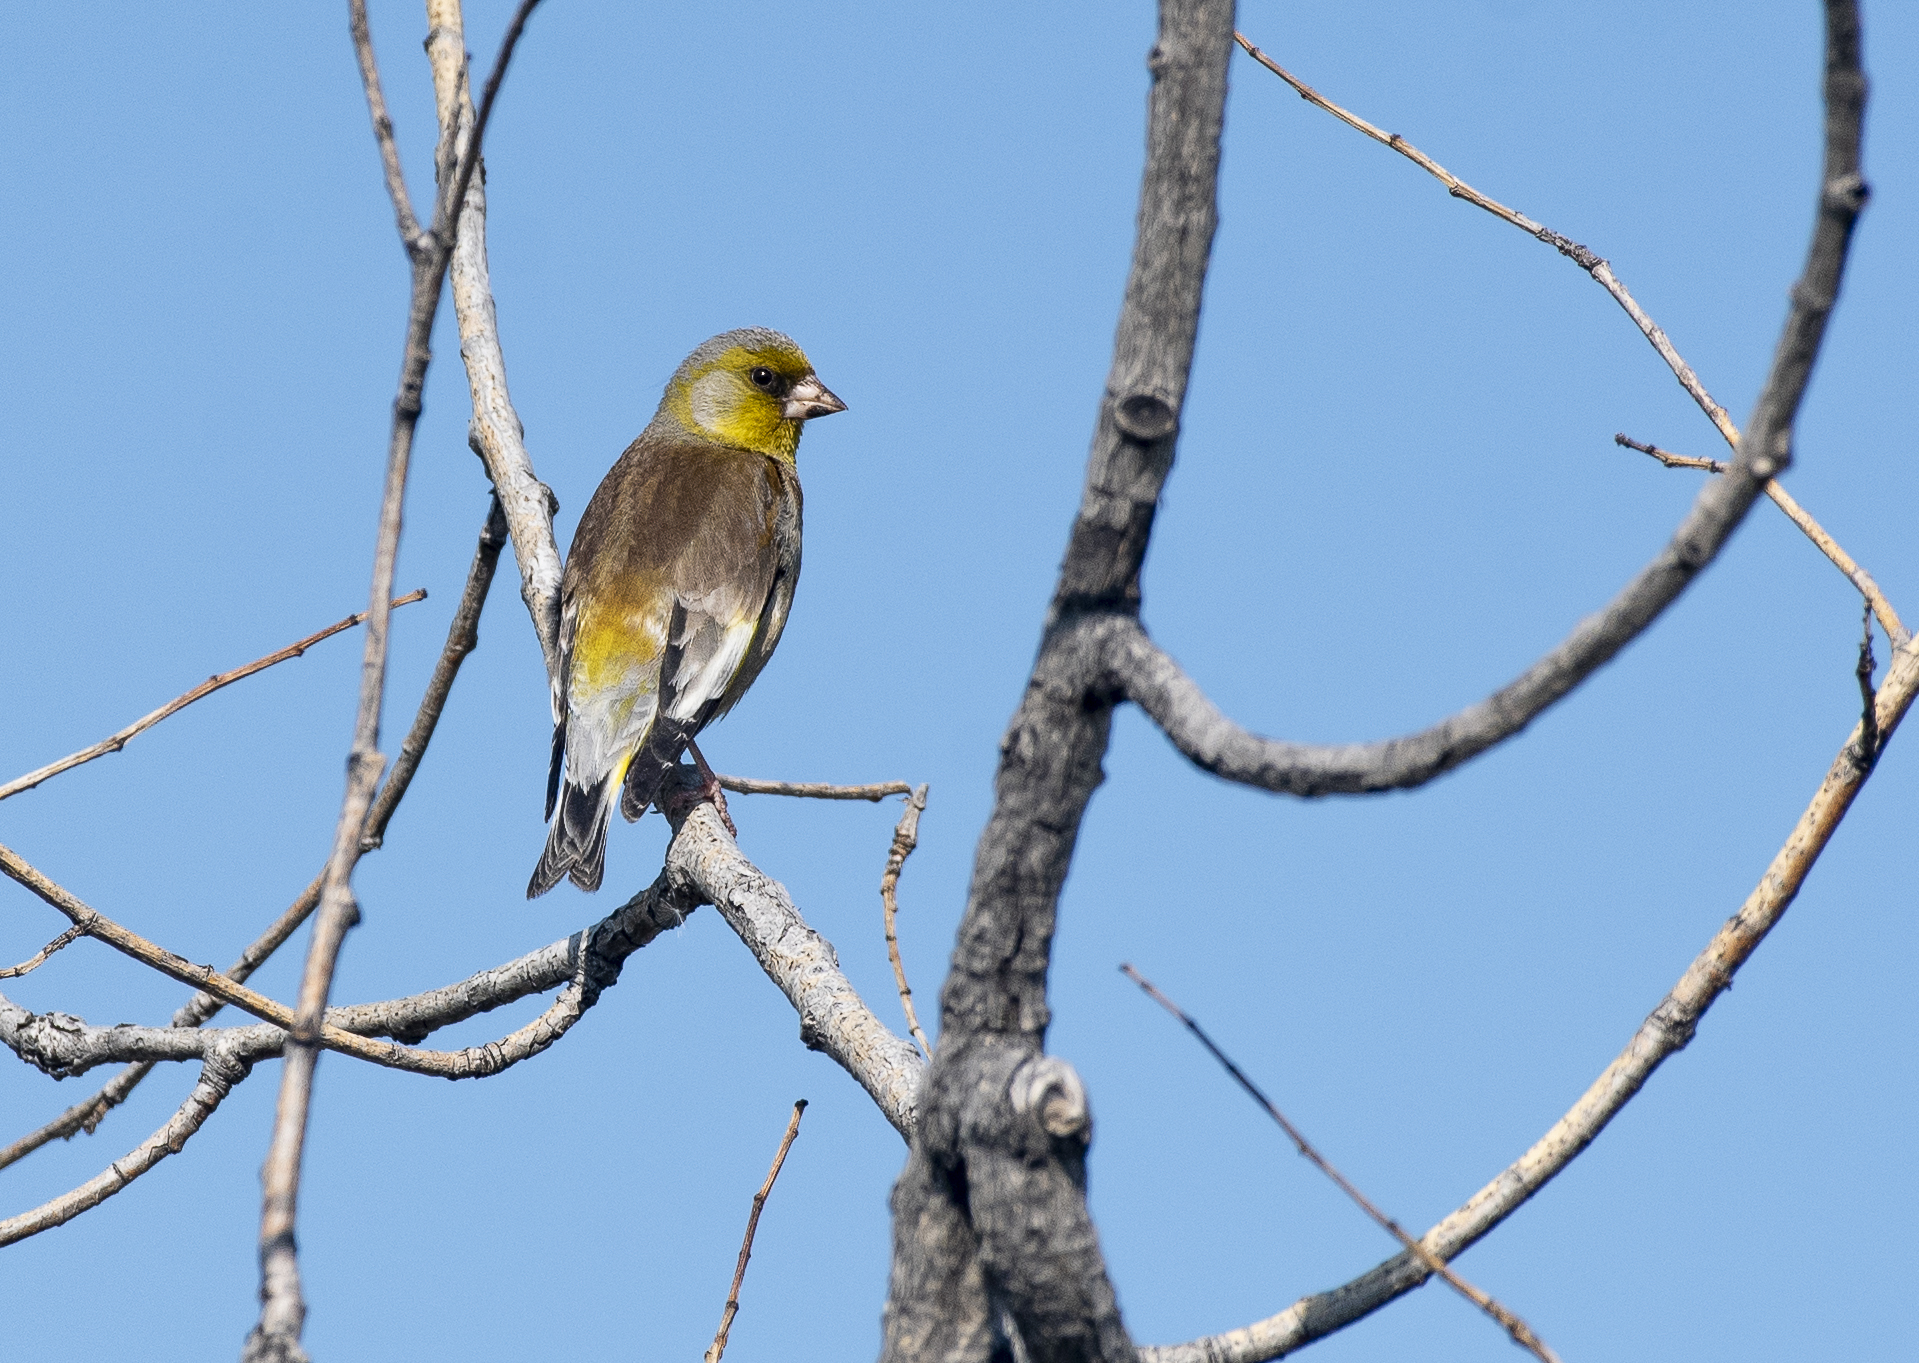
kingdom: Plantae
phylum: Tracheophyta
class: Liliopsida
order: Poales
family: Poaceae
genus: Chloris
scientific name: Chloris sinica
